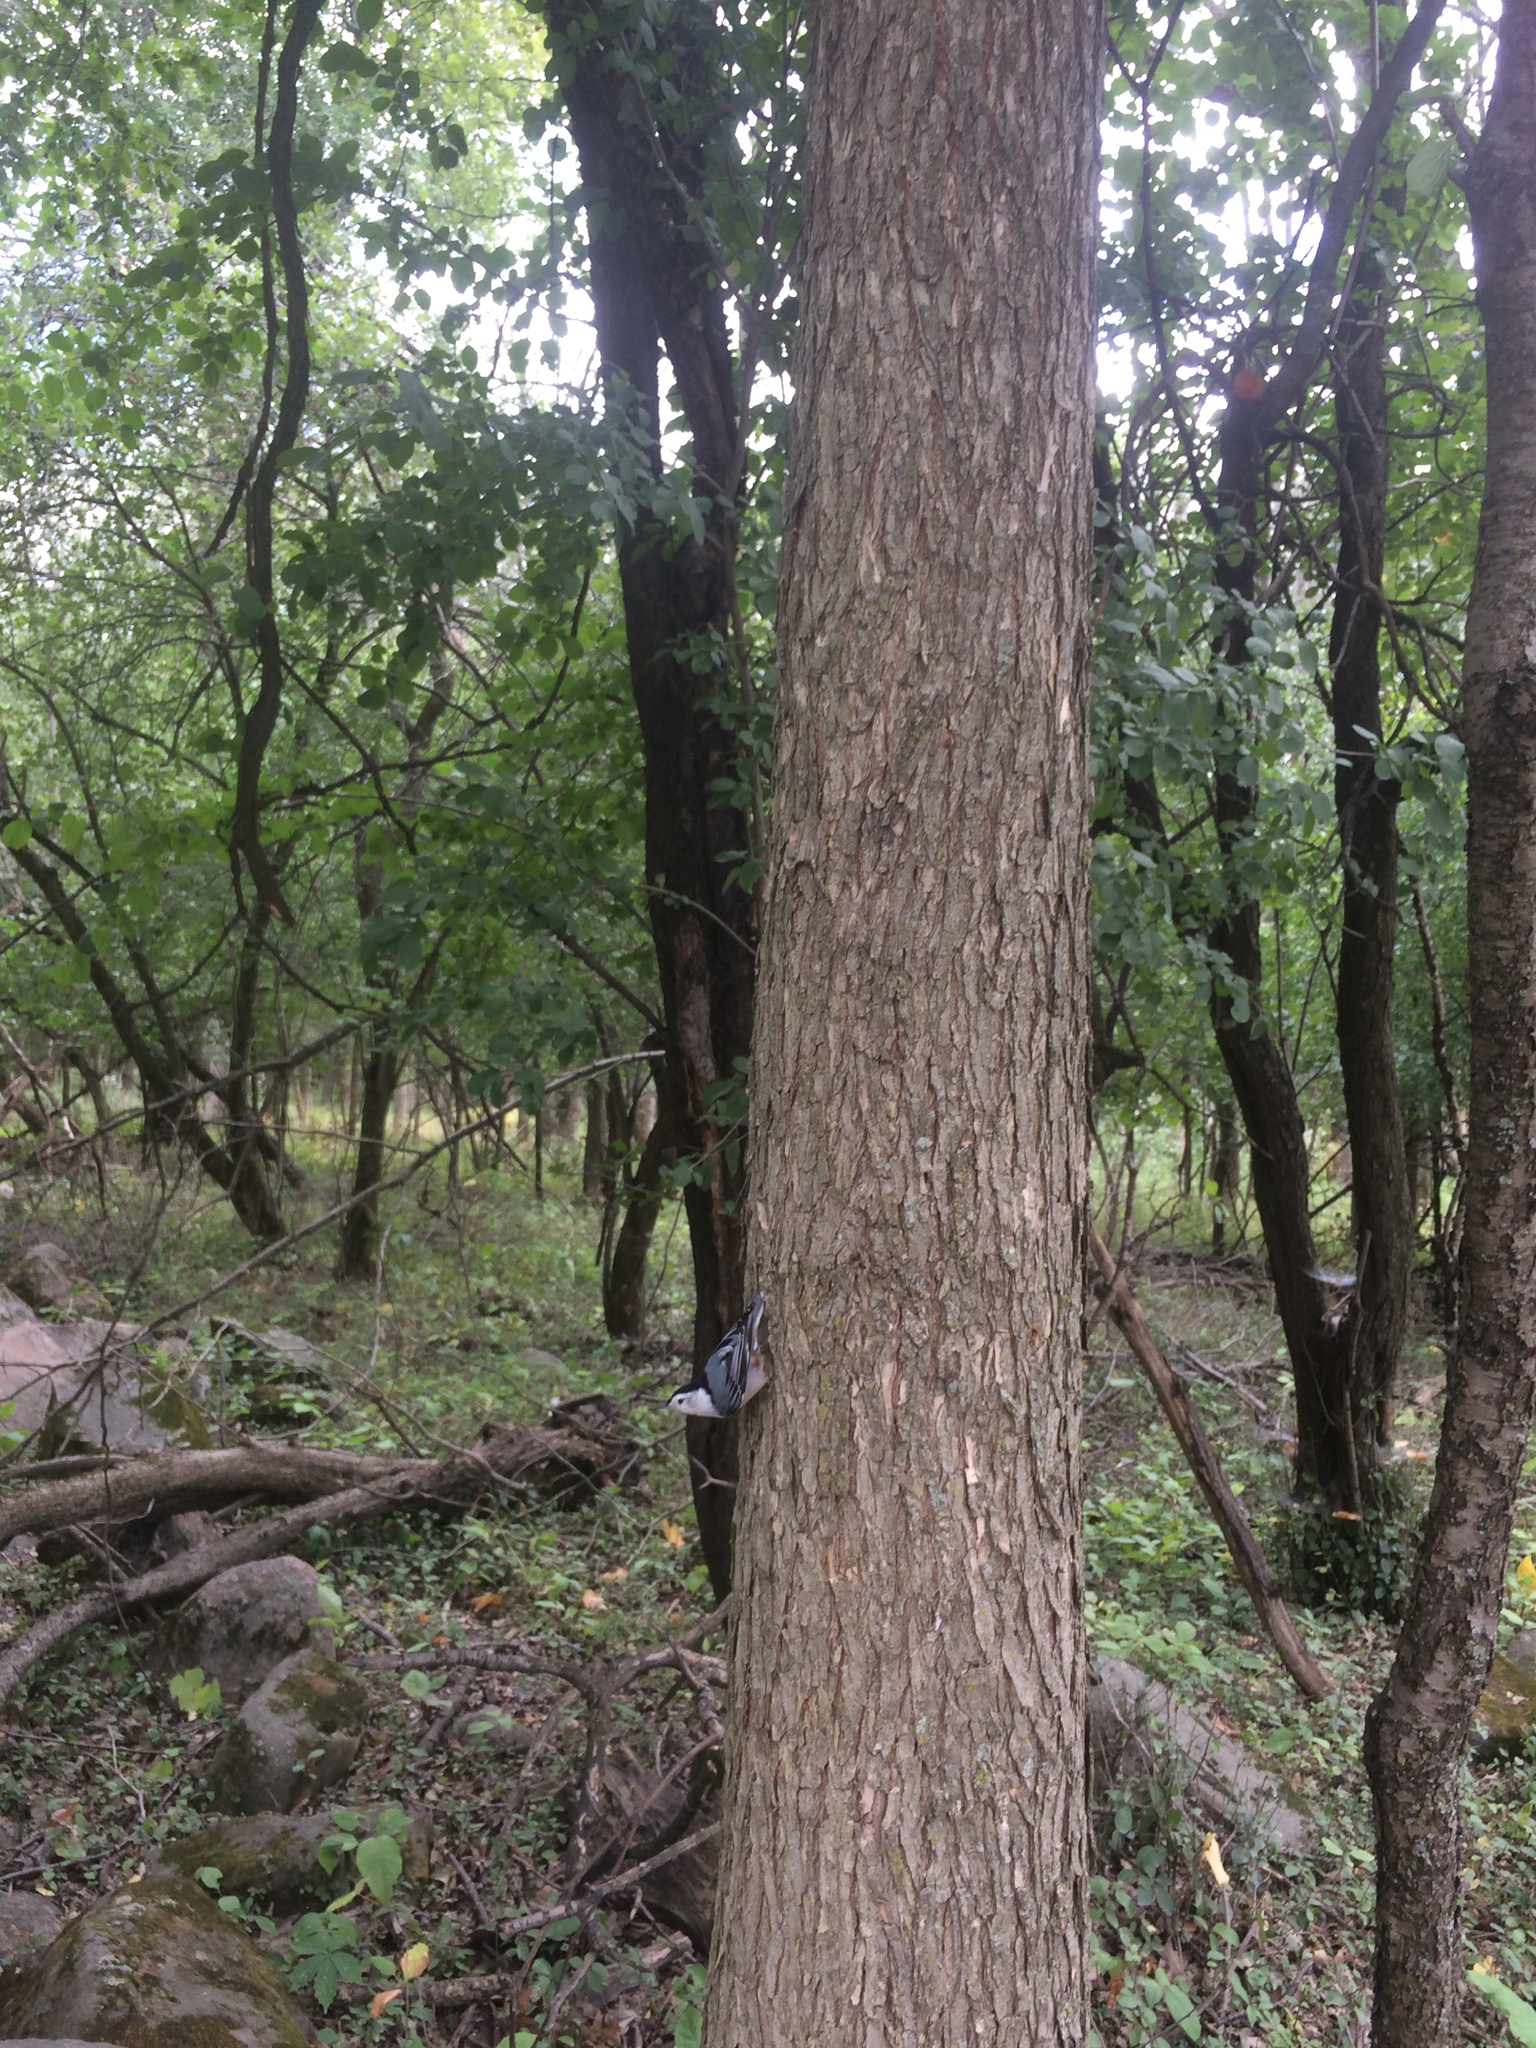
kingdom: Animalia
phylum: Chordata
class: Aves
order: Passeriformes
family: Sittidae
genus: Sitta
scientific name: Sitta carolinensis
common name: White-breasted nuthatch
